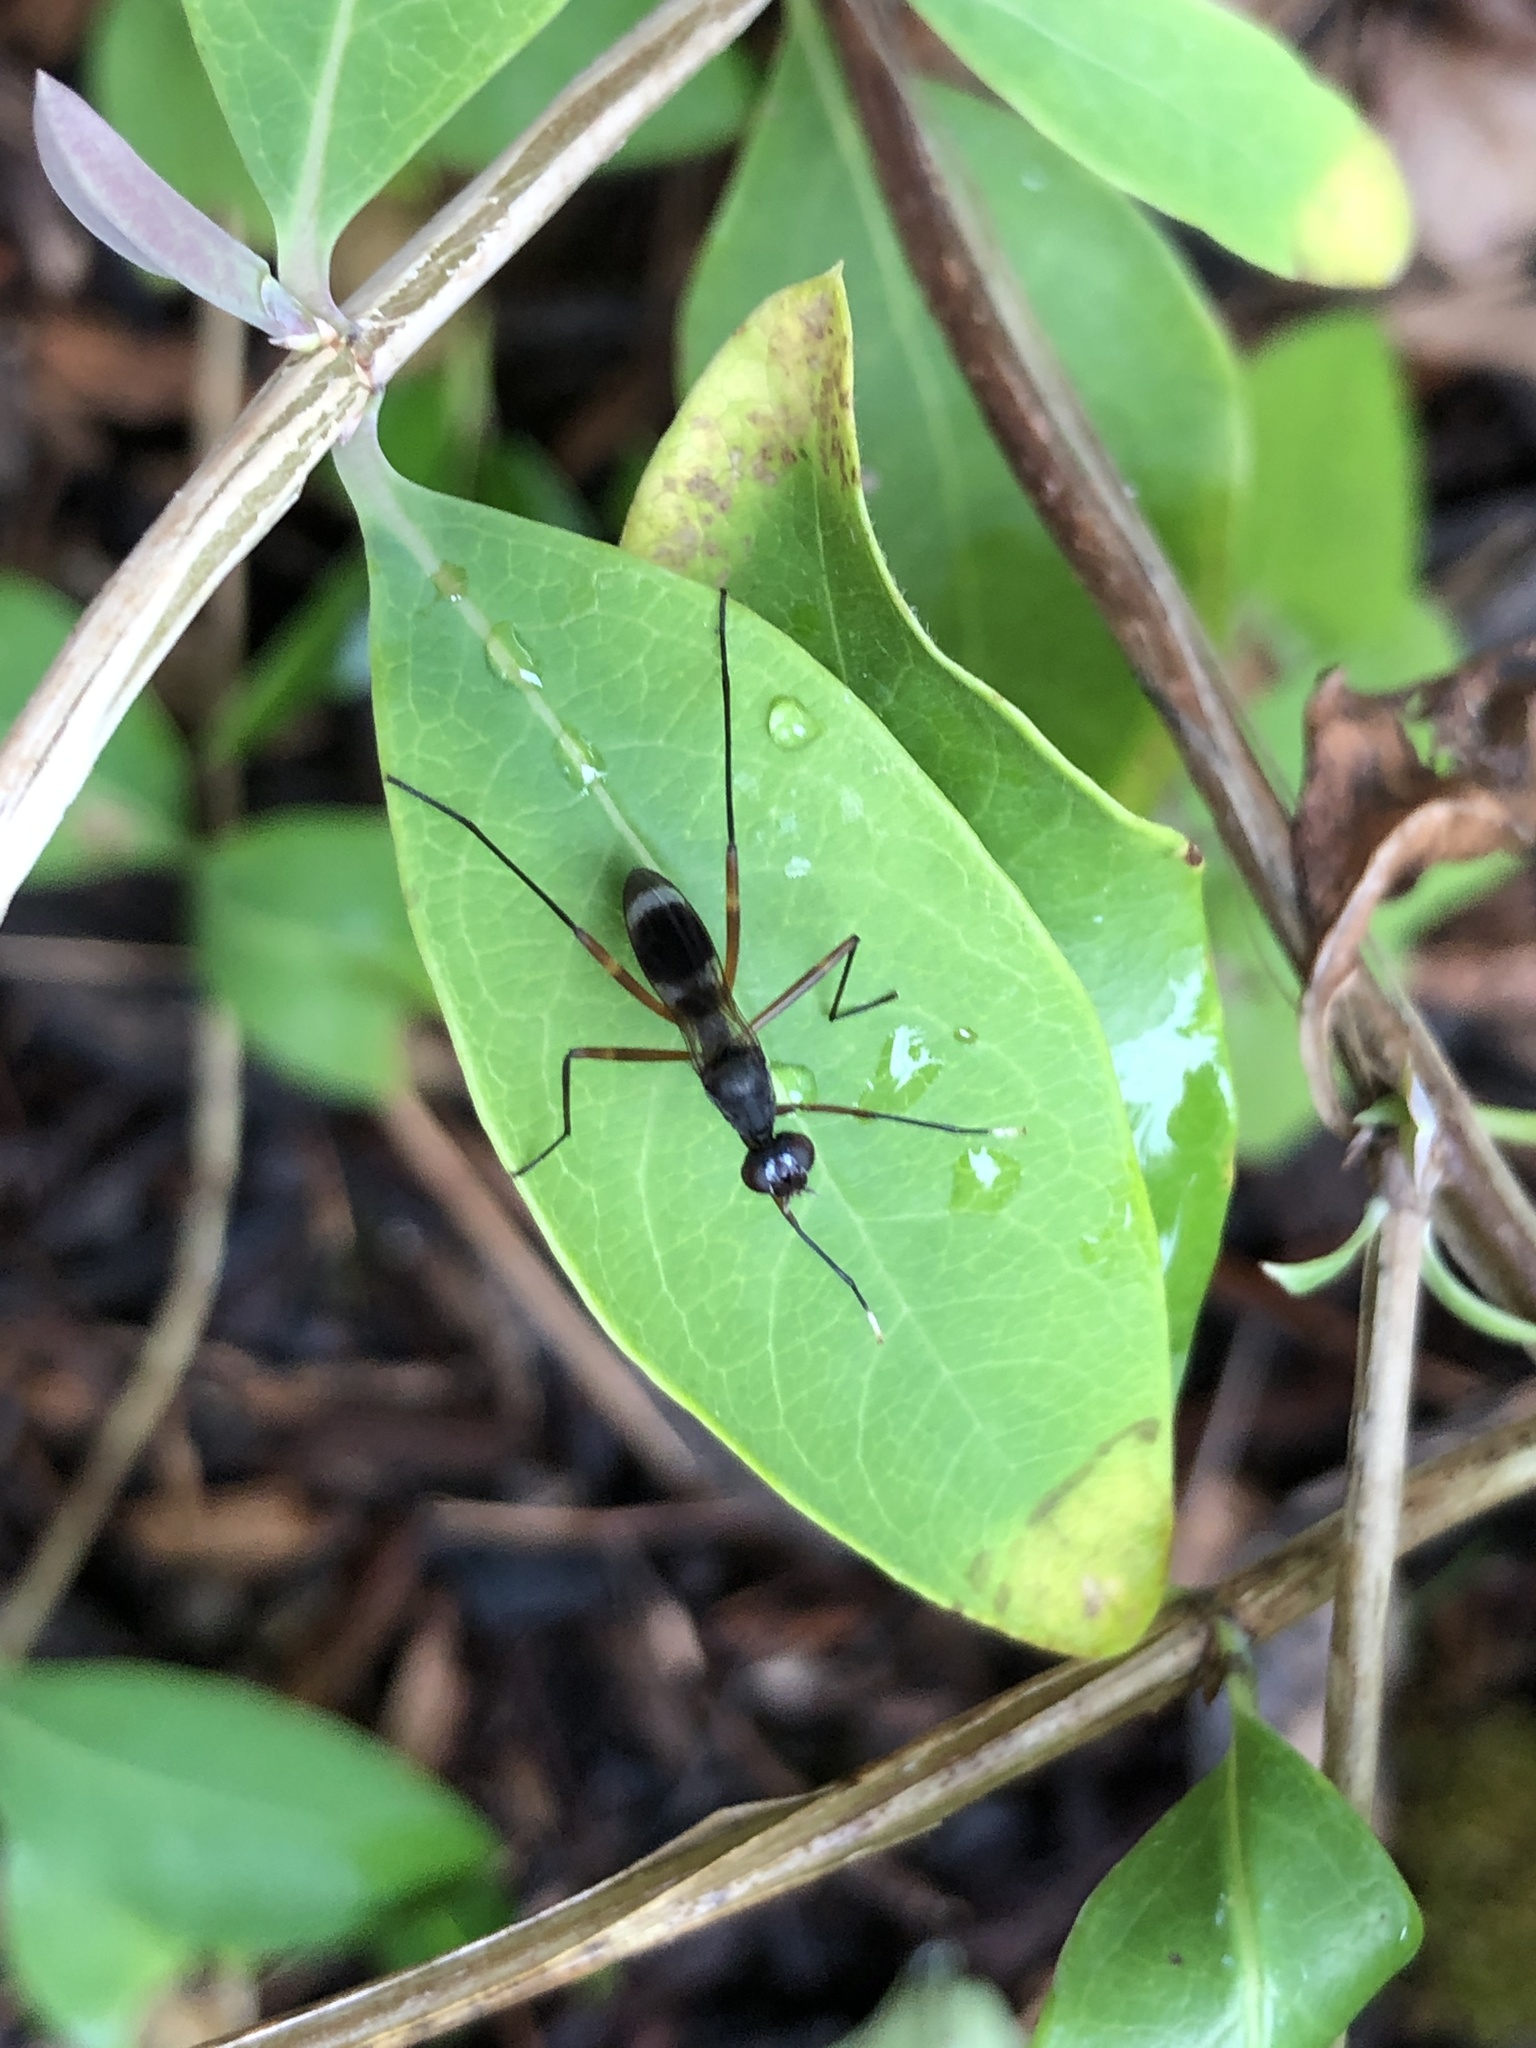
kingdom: Animalia
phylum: Arthropoda
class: Insecta
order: Diptera
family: Micropezidae
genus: Taeniaptera
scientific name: Taeniaptera trivittata
